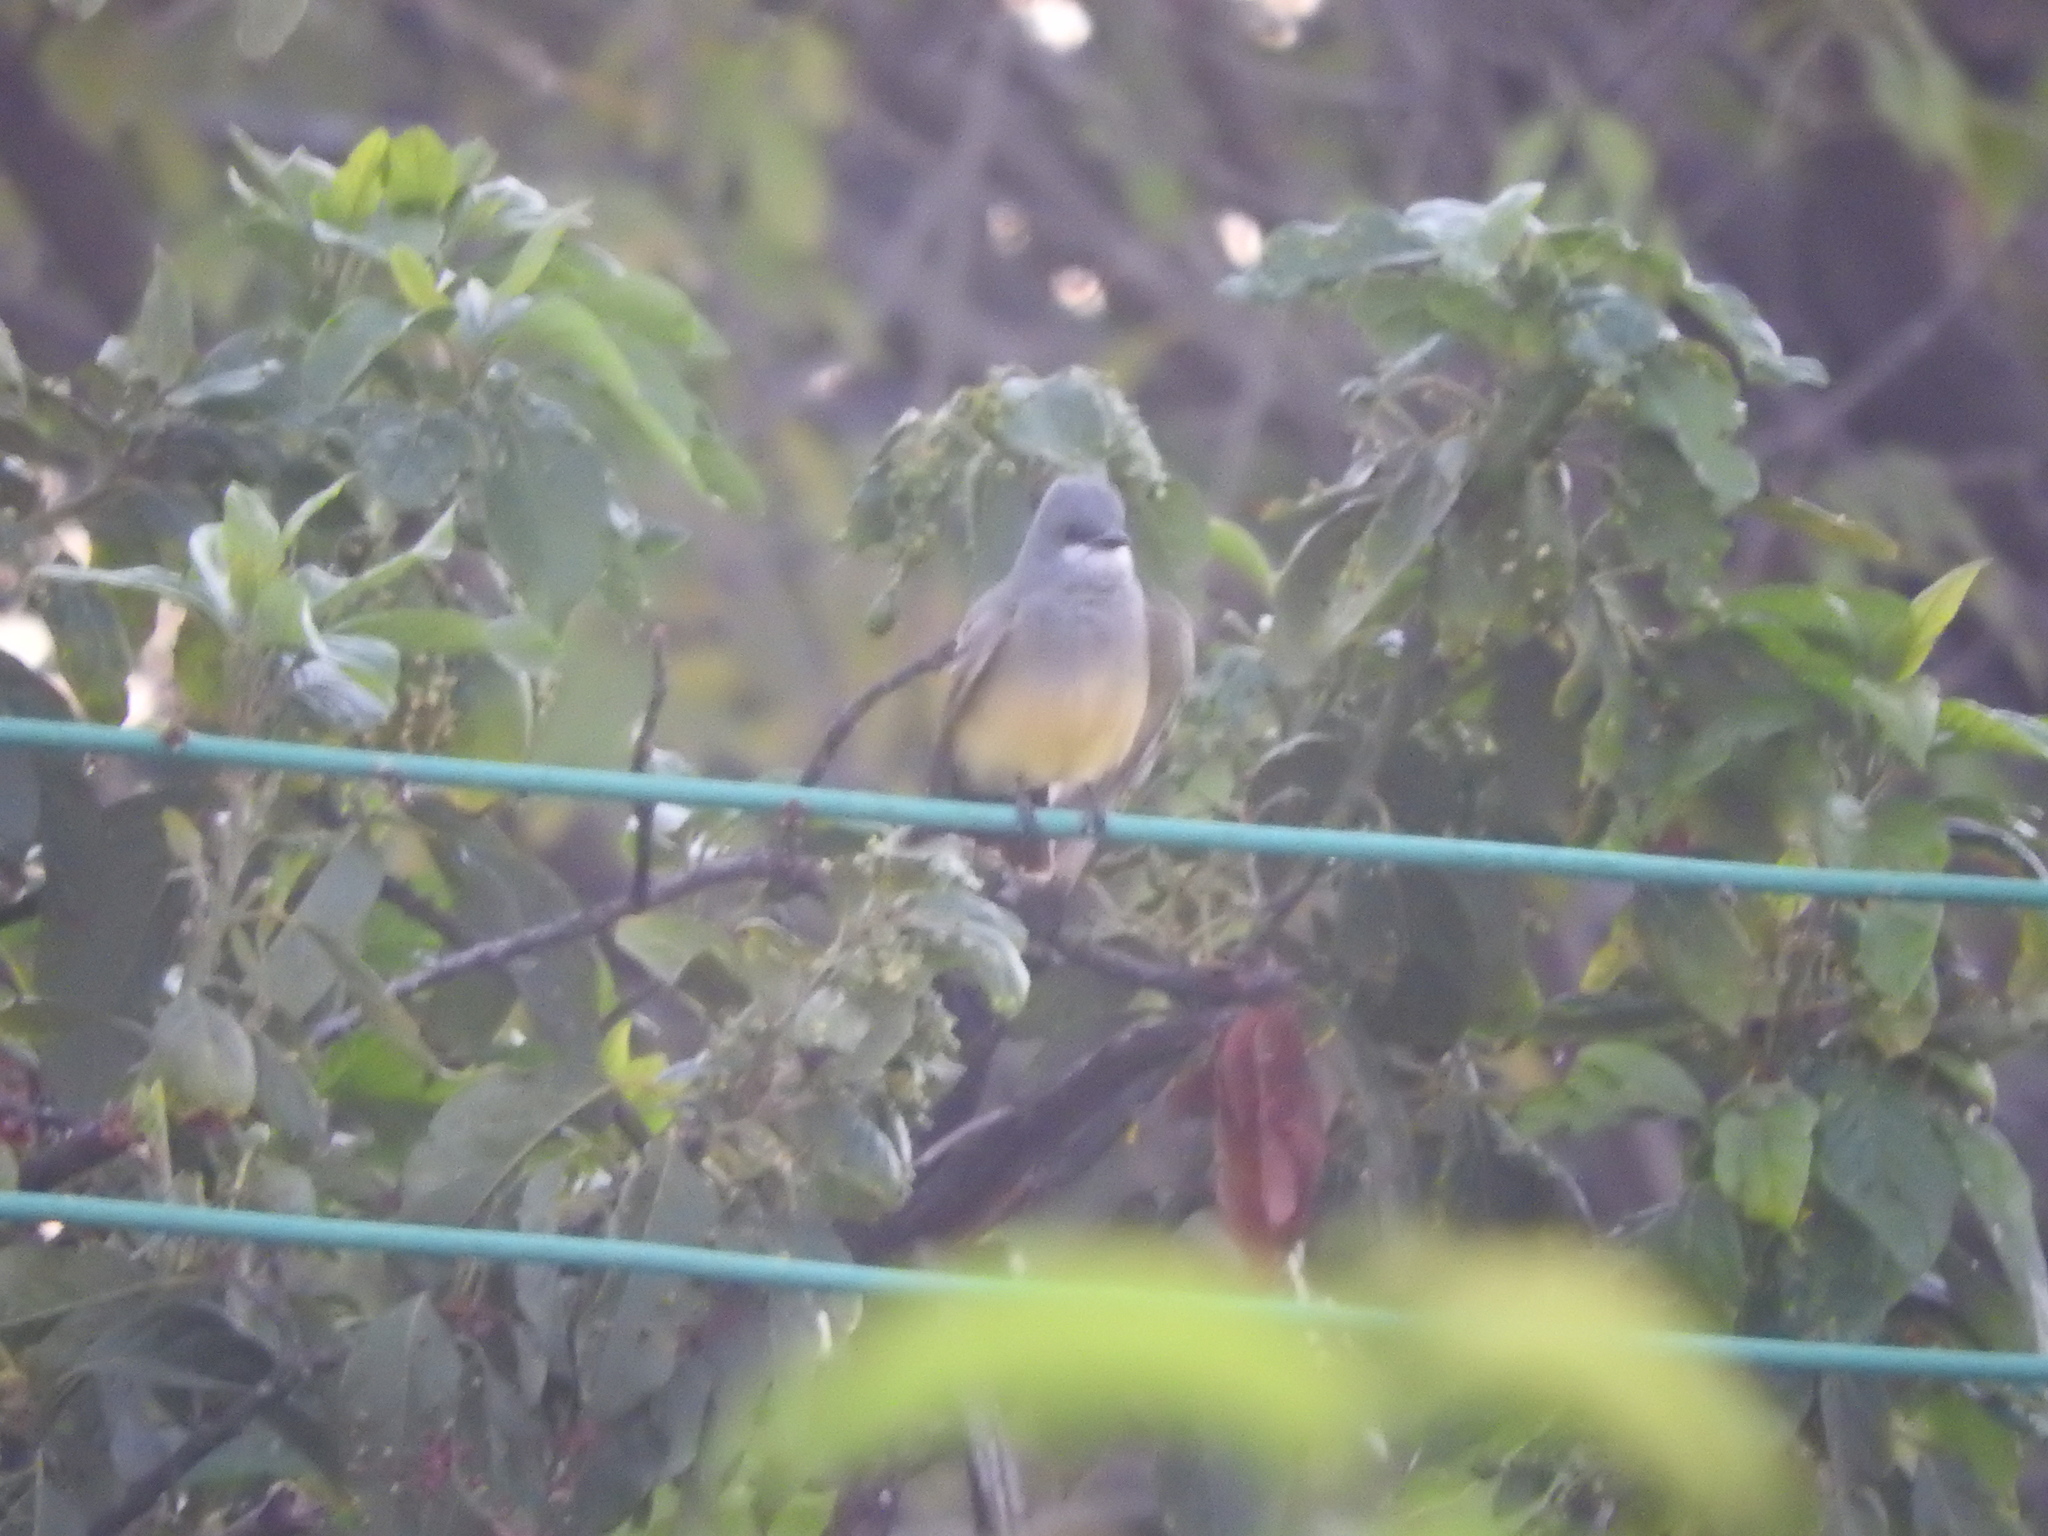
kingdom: Animalia
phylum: Chordata
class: Aves
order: Passeriformes
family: Tyrannidae
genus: Tyrannus
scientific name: Tyrannus vociferans
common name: Cassin's kingbird
